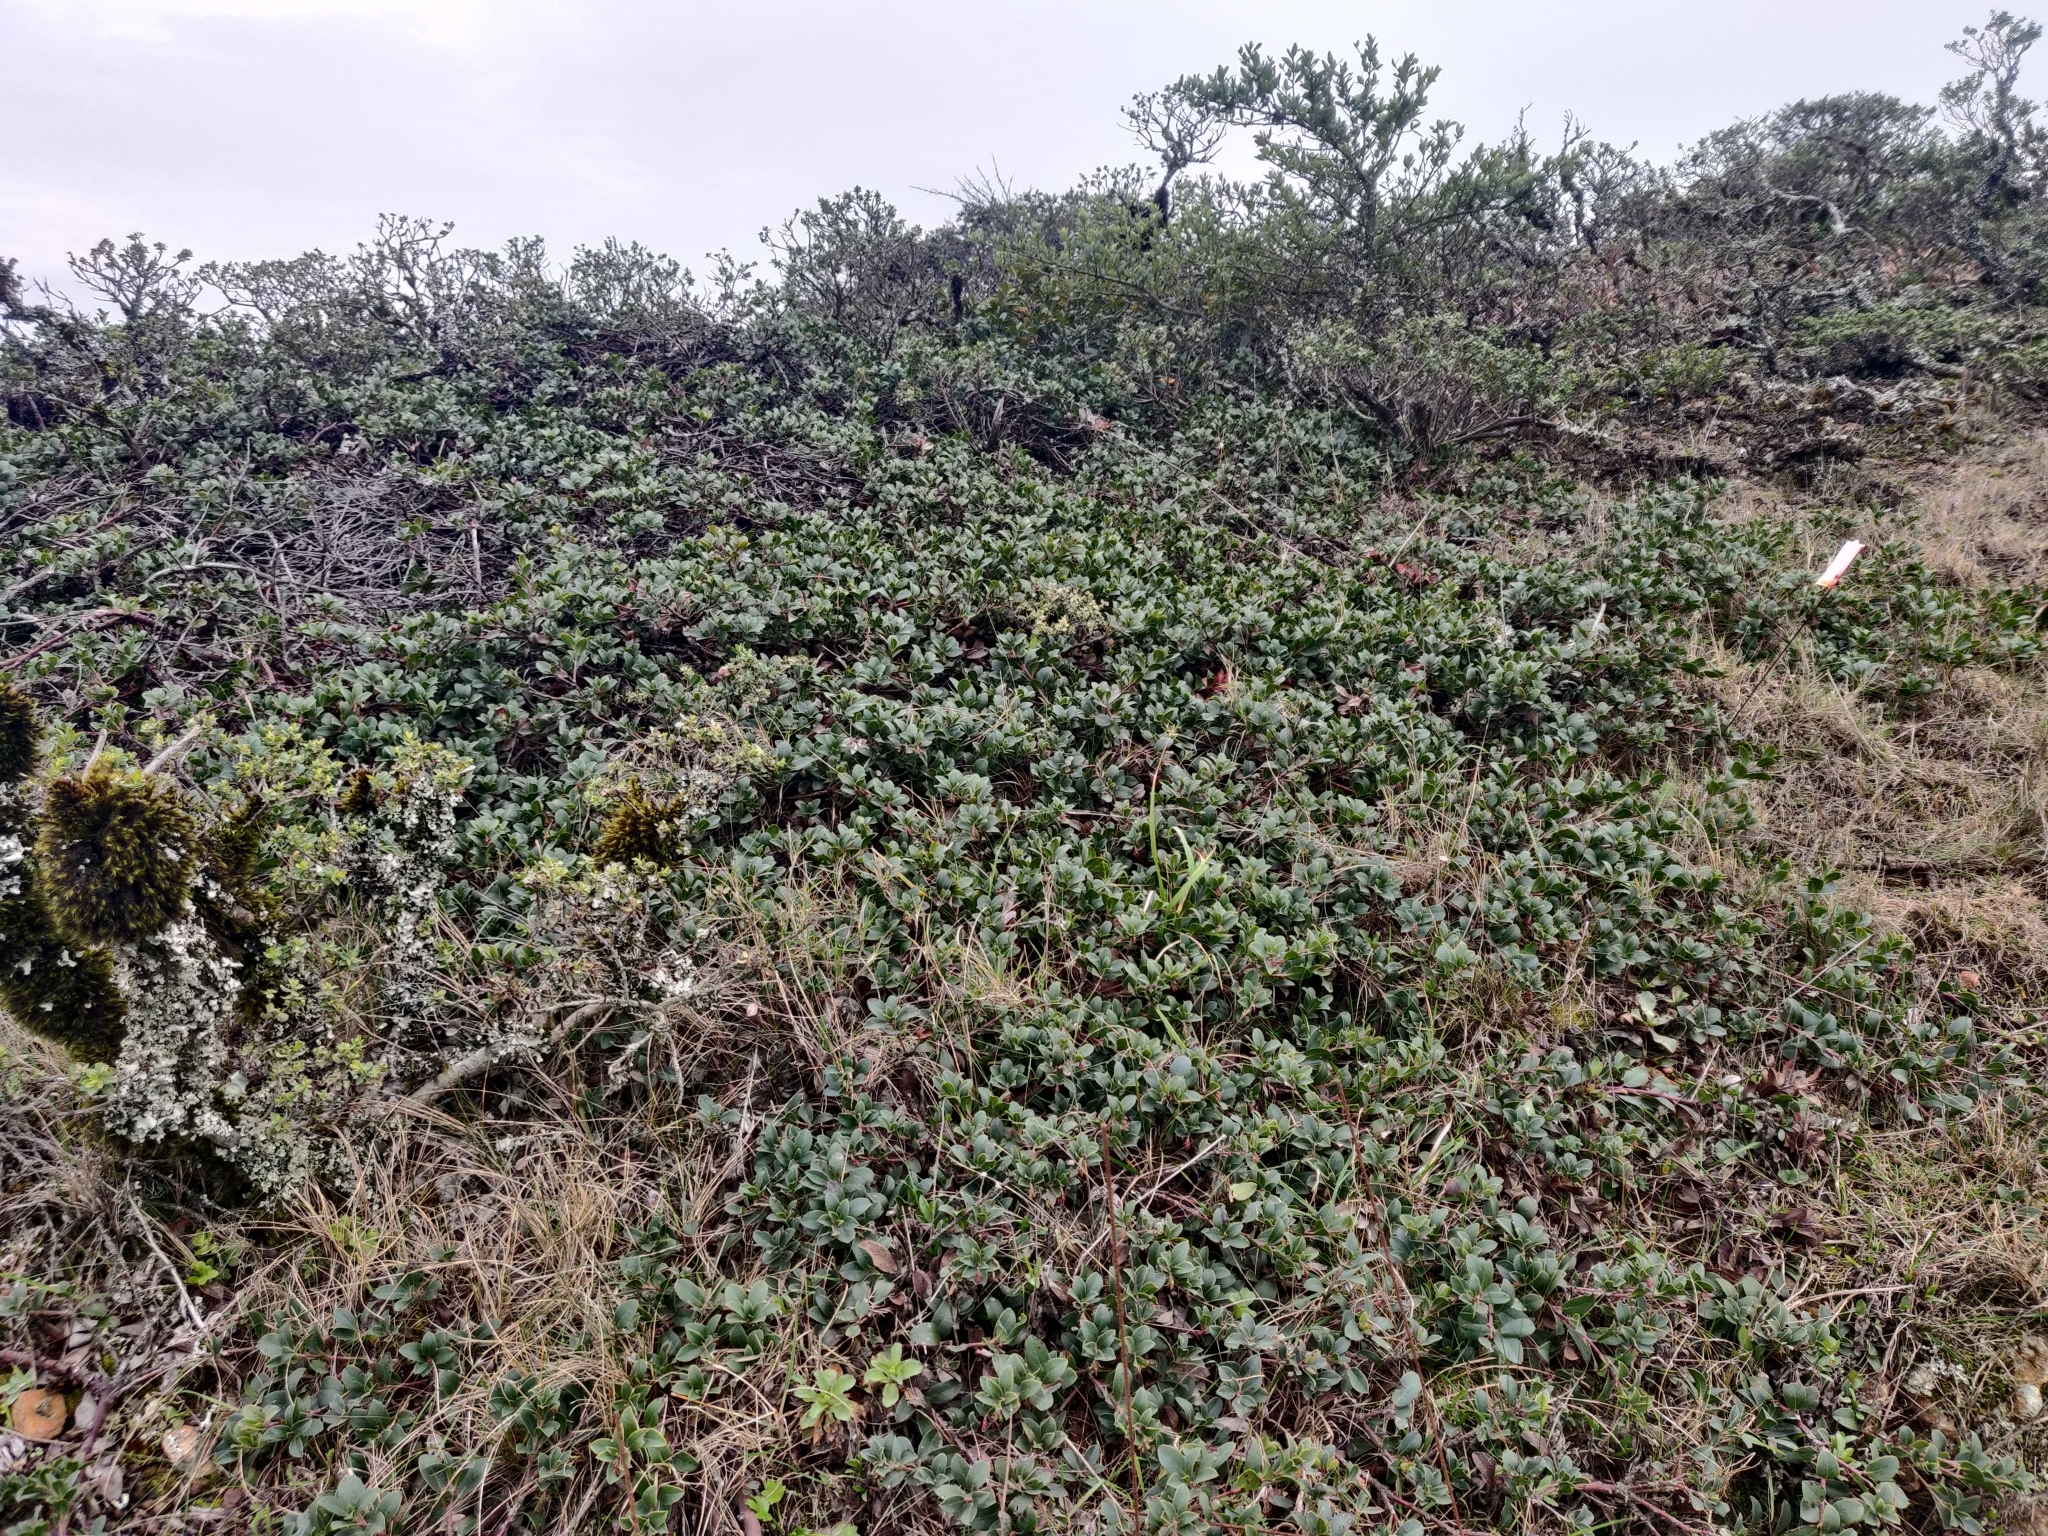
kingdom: Plantae
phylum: Tracheophyta
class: Magnoliopsida
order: Ericales
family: Ericaceae
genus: Arctostaphylos
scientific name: Arctostaphylos uva-ursi
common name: Bearberry
